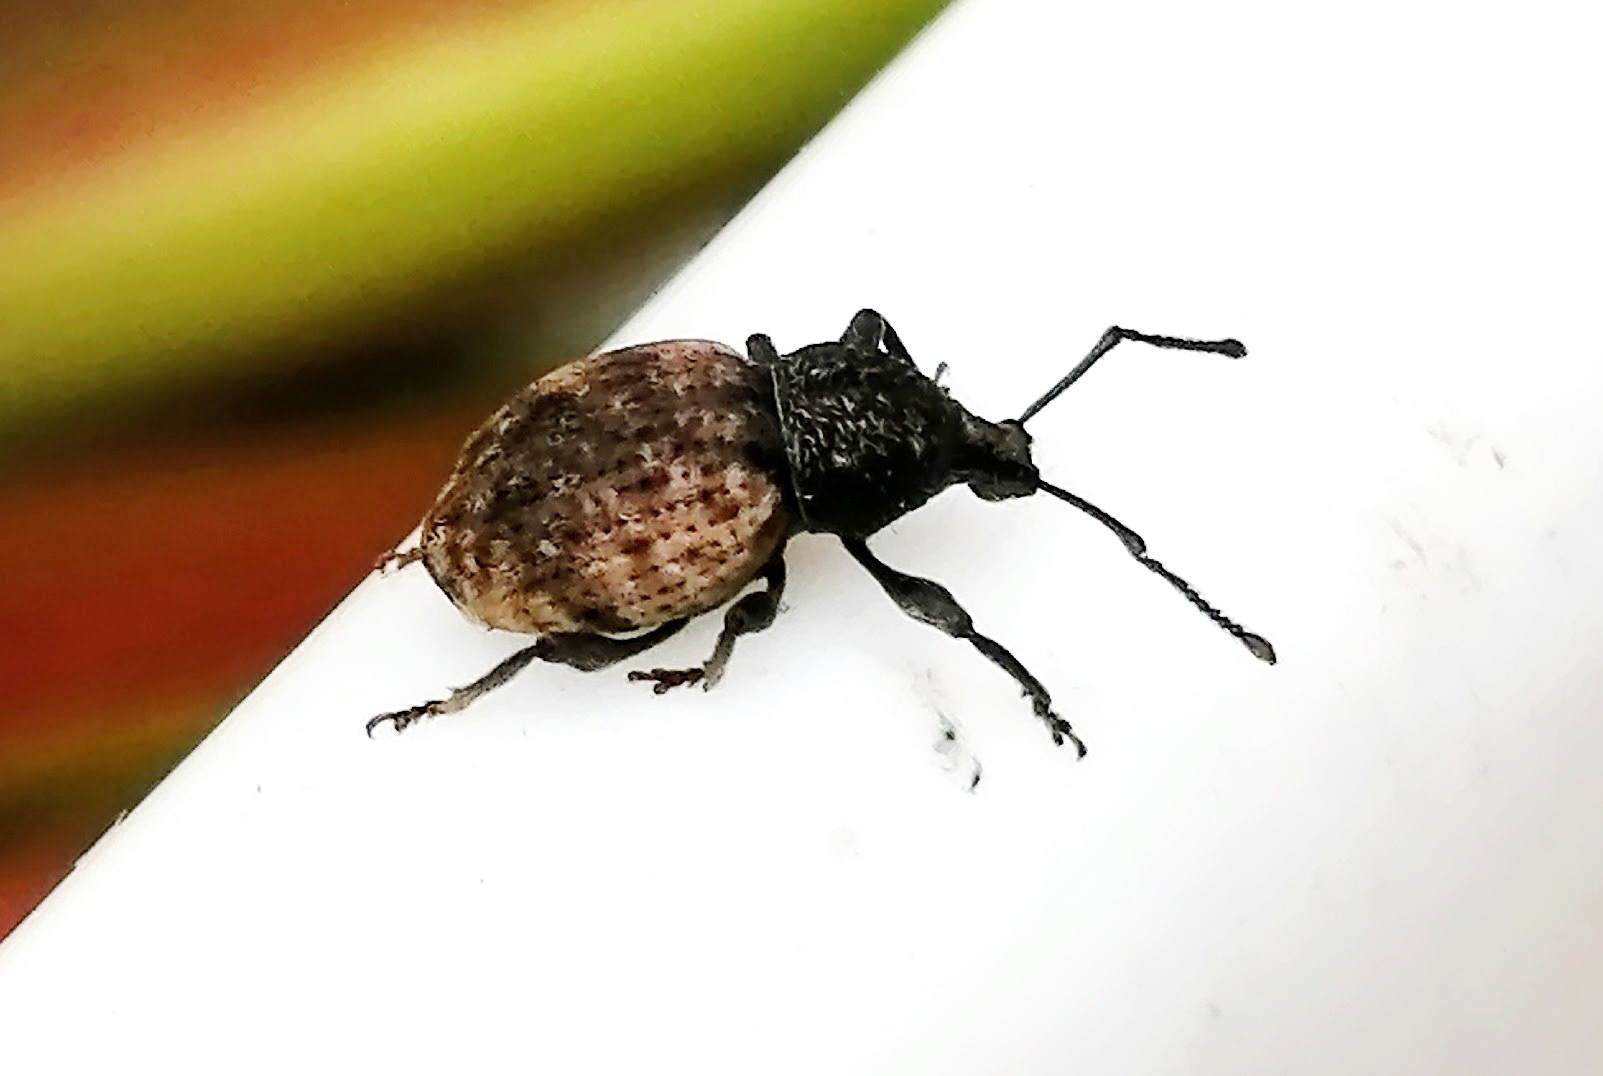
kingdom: Animalia
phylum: Arthropoda
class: Insecta
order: Coleoptera
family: Curculionidae
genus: Otiorhynchus
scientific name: Otiorhynchus raucus
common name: Weevil
